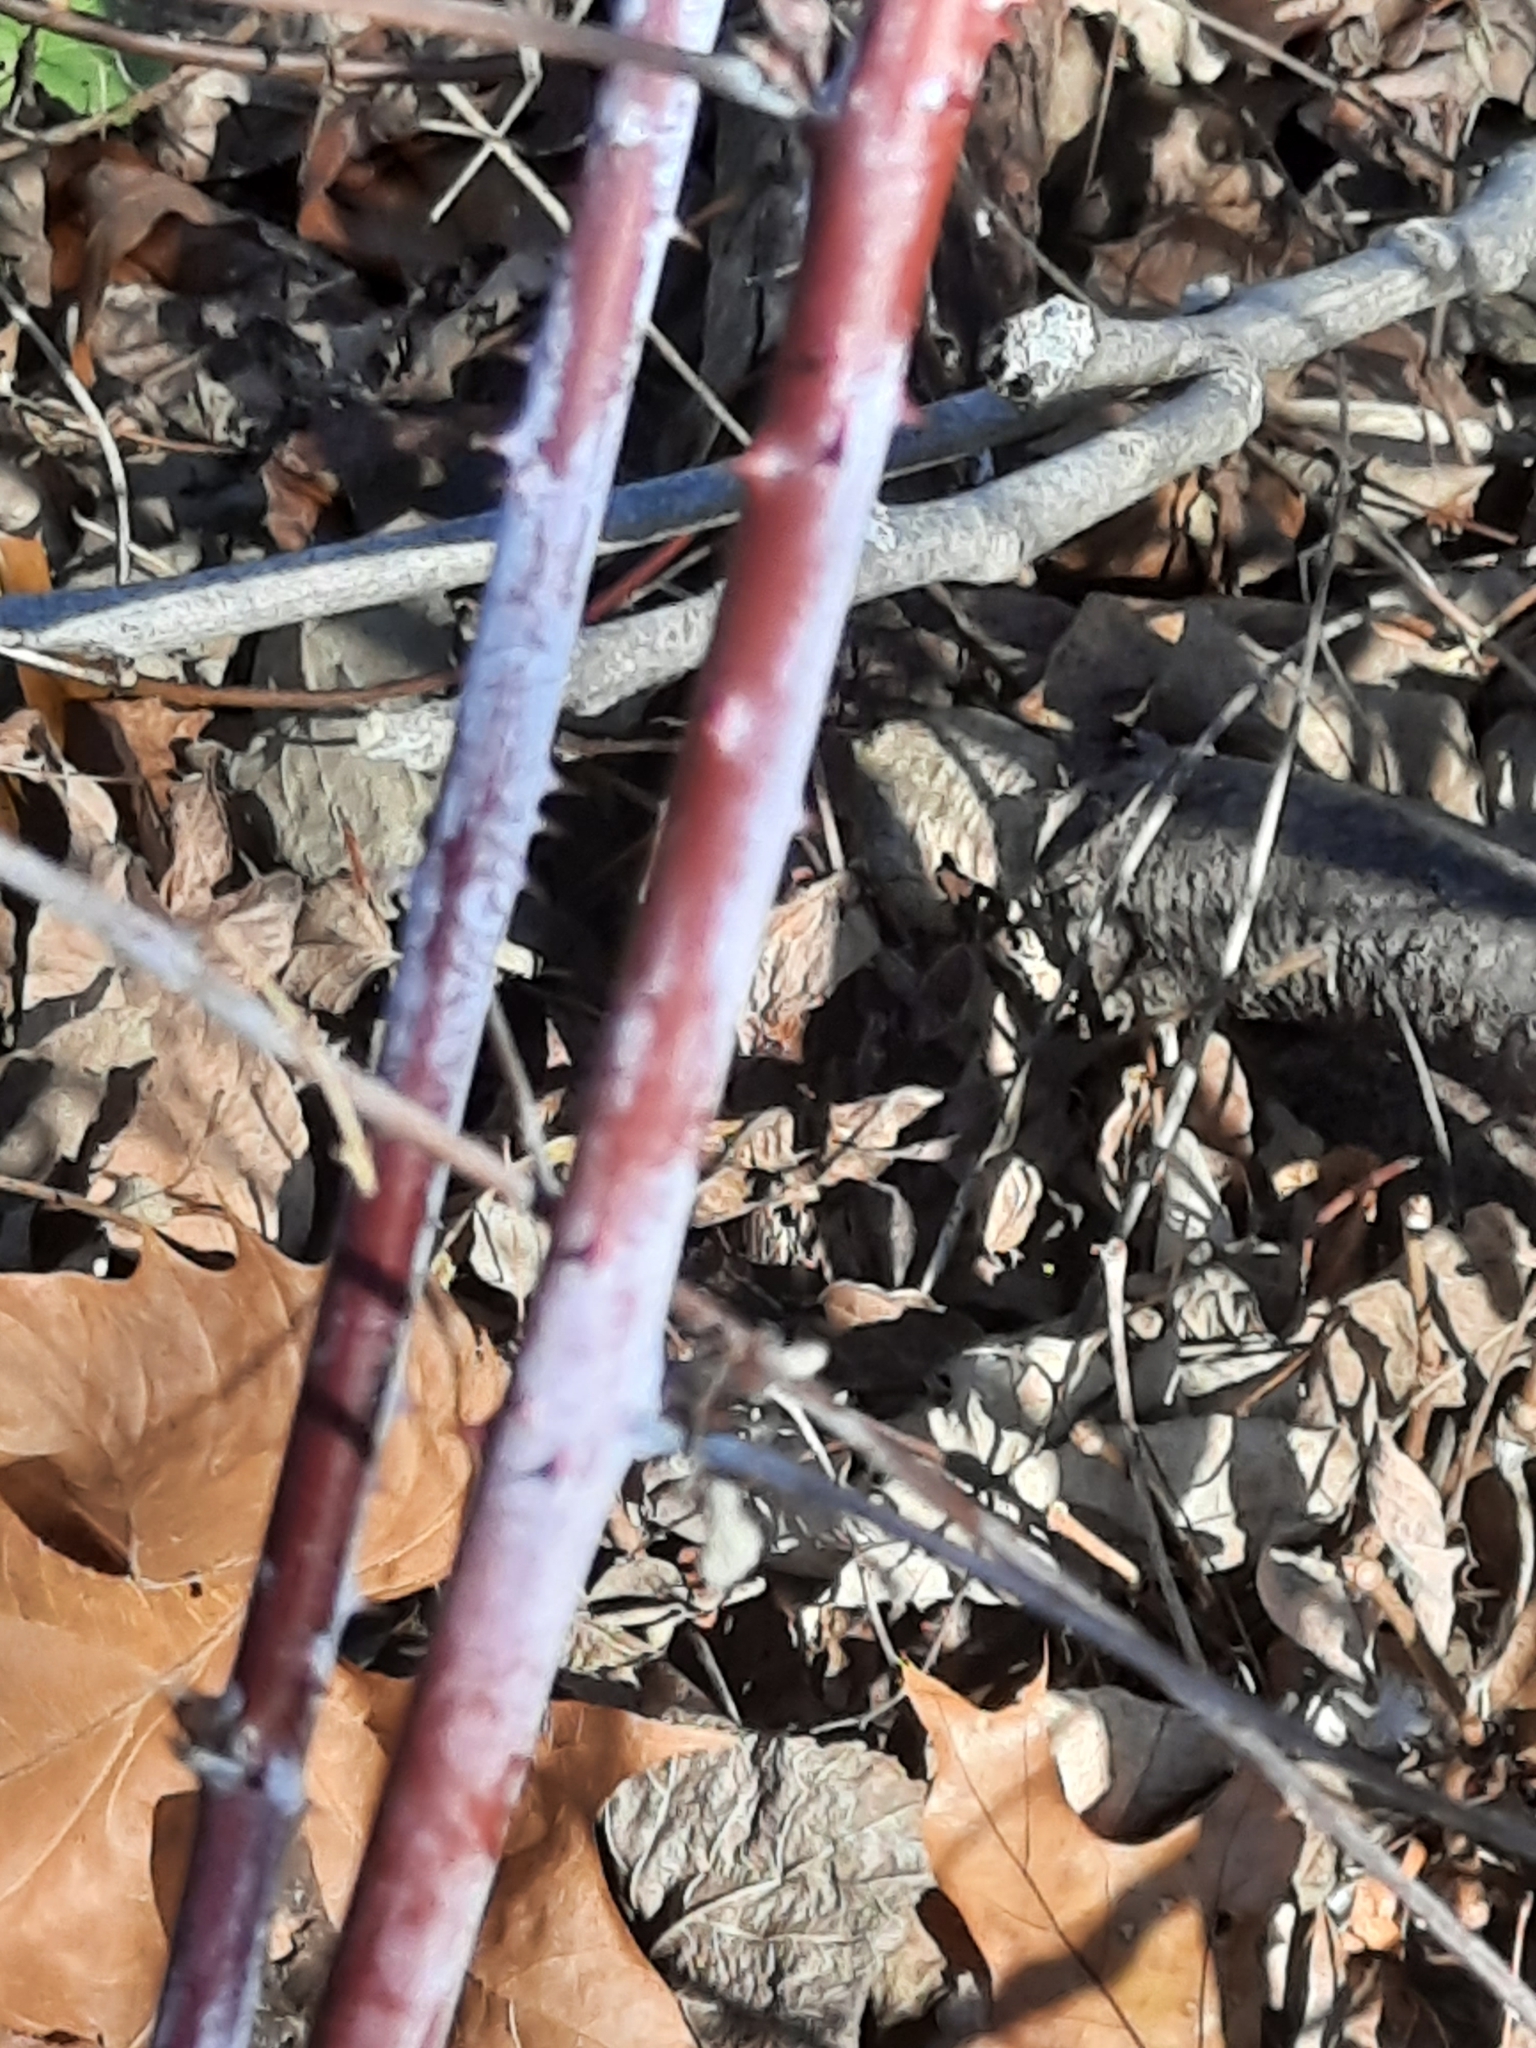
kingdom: Plantae
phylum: Tracheophyta
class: Magnoliopsida
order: Rosales
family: Rosaceae
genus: Rubus
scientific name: Rubus occidentalis
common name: Black raspberry
